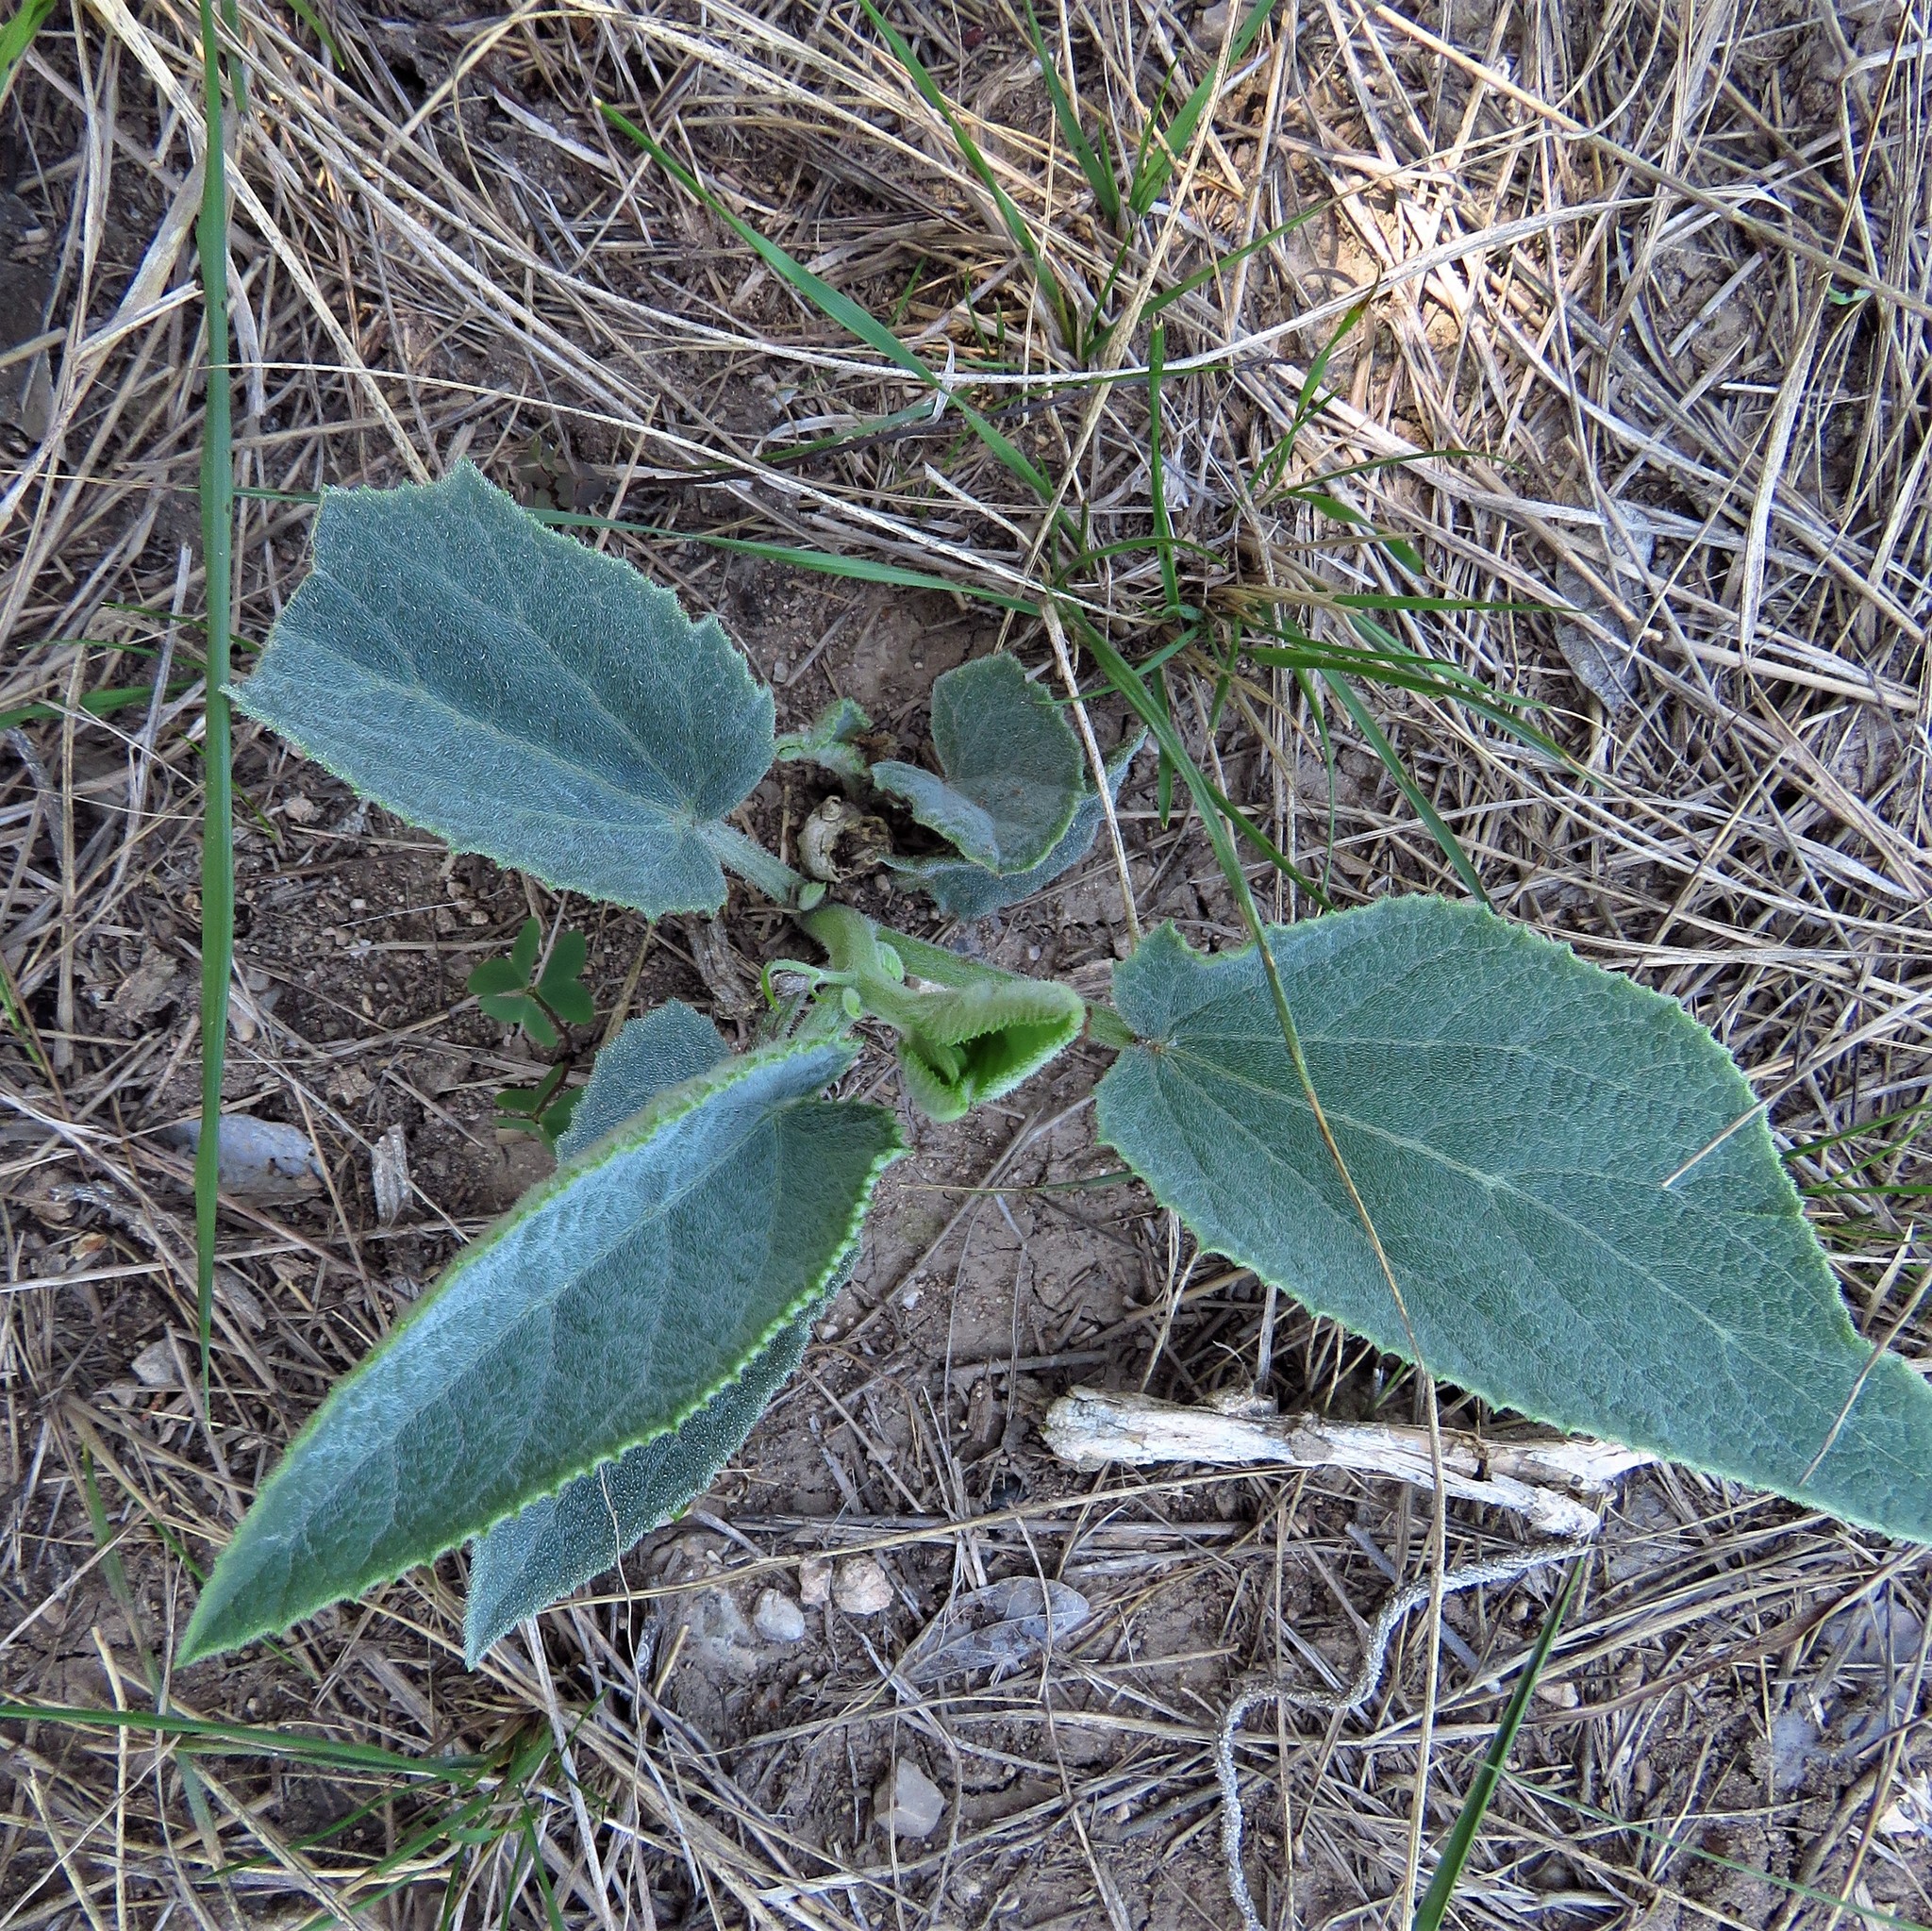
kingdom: Plantae
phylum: Tracheophyta
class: Magnoliopsida
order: Cucurbitales
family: Cucurbitaceae
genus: Cucurbita
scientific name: Cucurbita foetidissima
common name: Buffalo gourd
